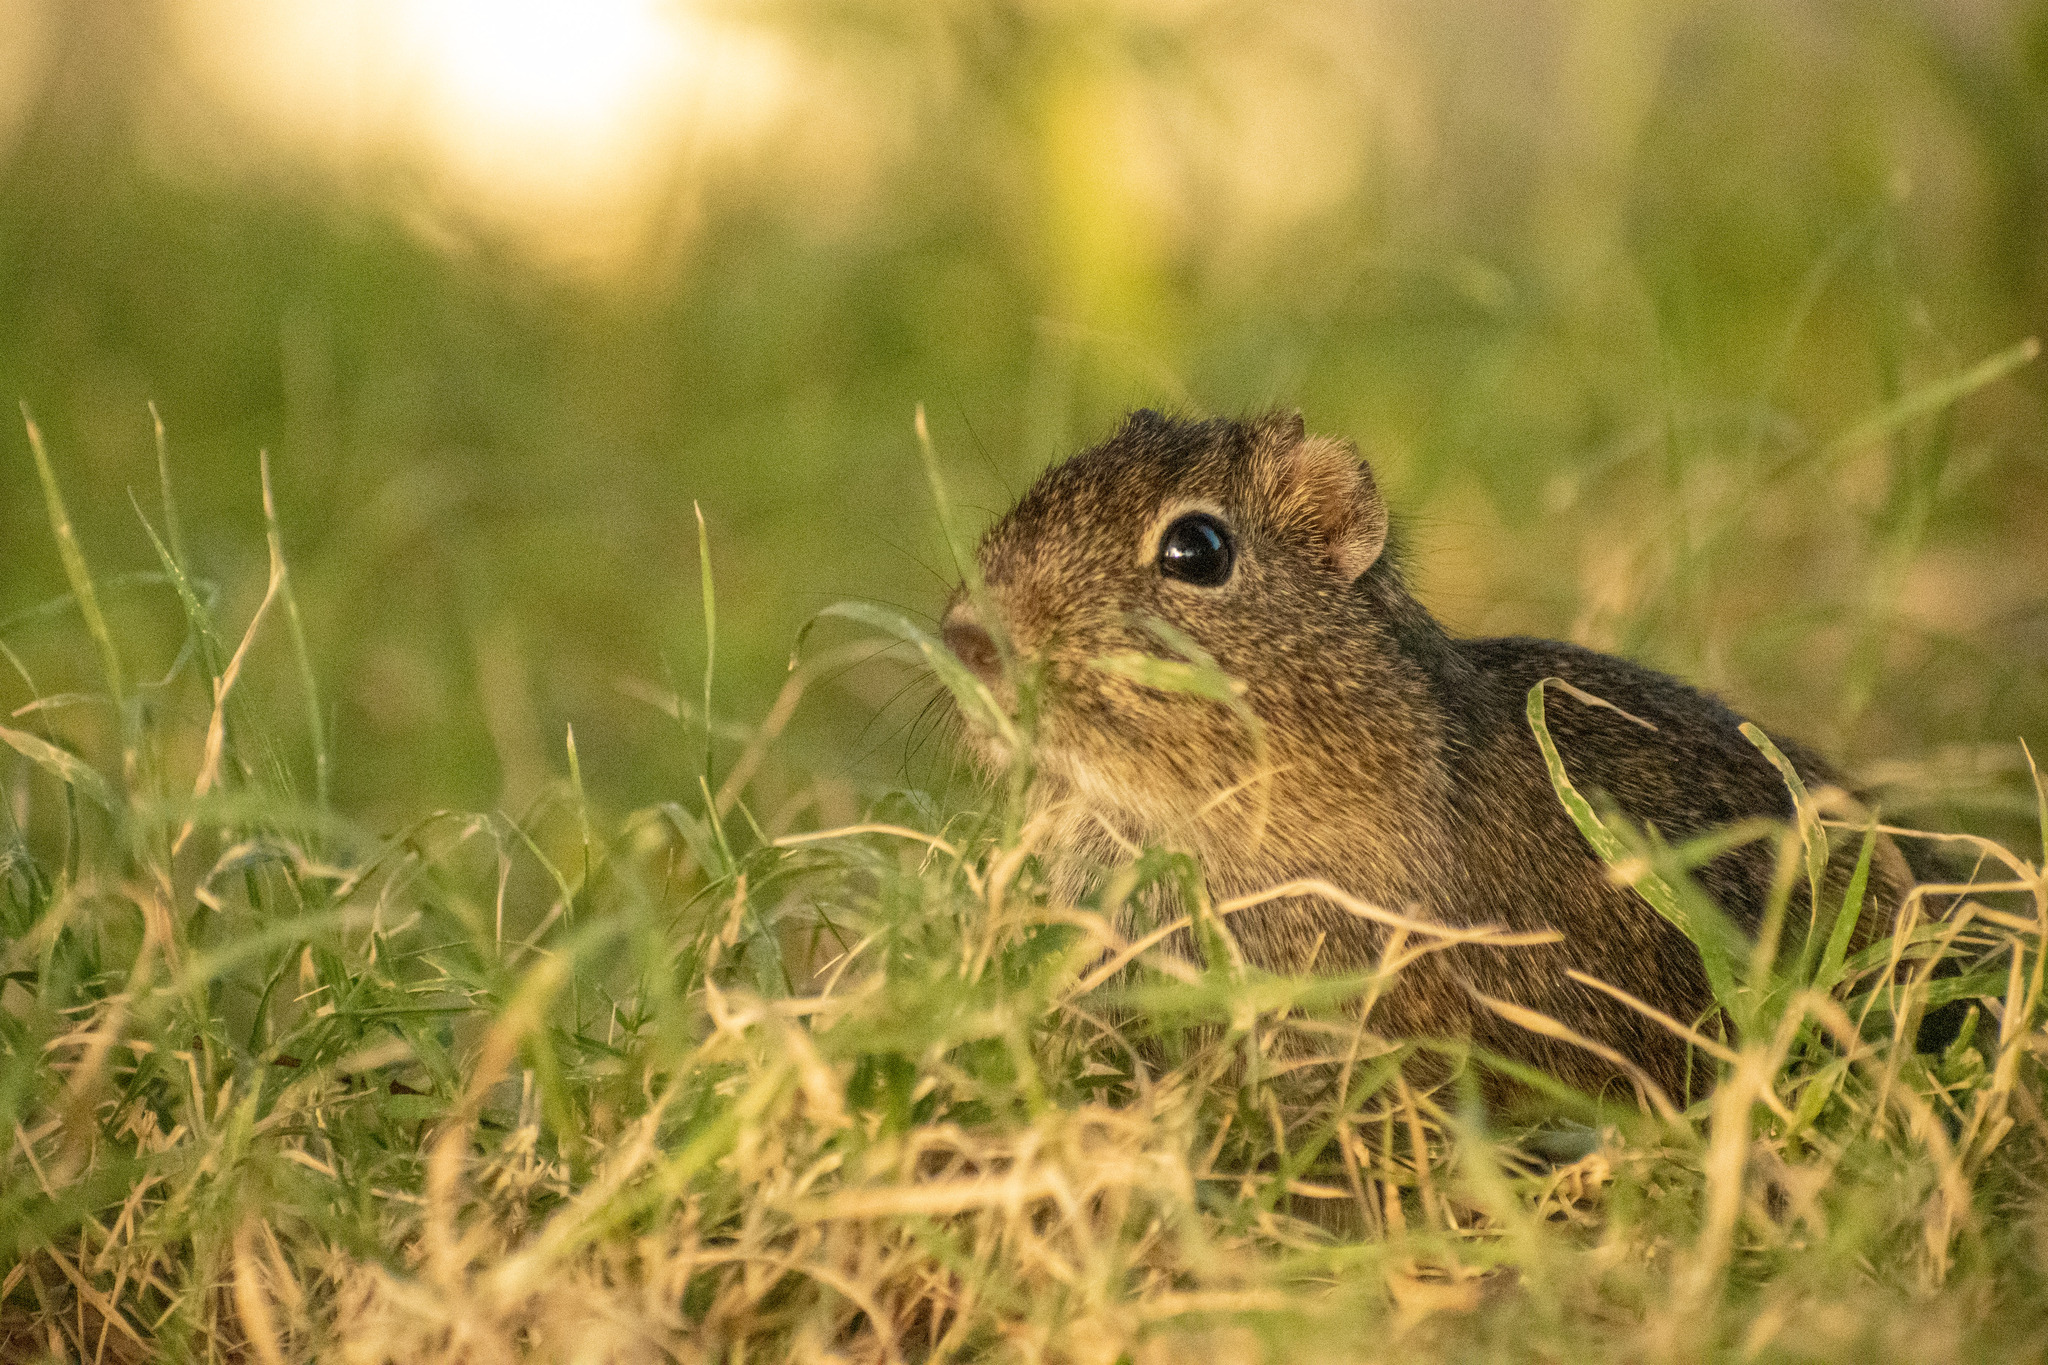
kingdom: Animalia
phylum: Chordata
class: Mammalia
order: Rodentia
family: Caviidae
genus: Microcavia
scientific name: Microcavia australis
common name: Southern mountain cavy
